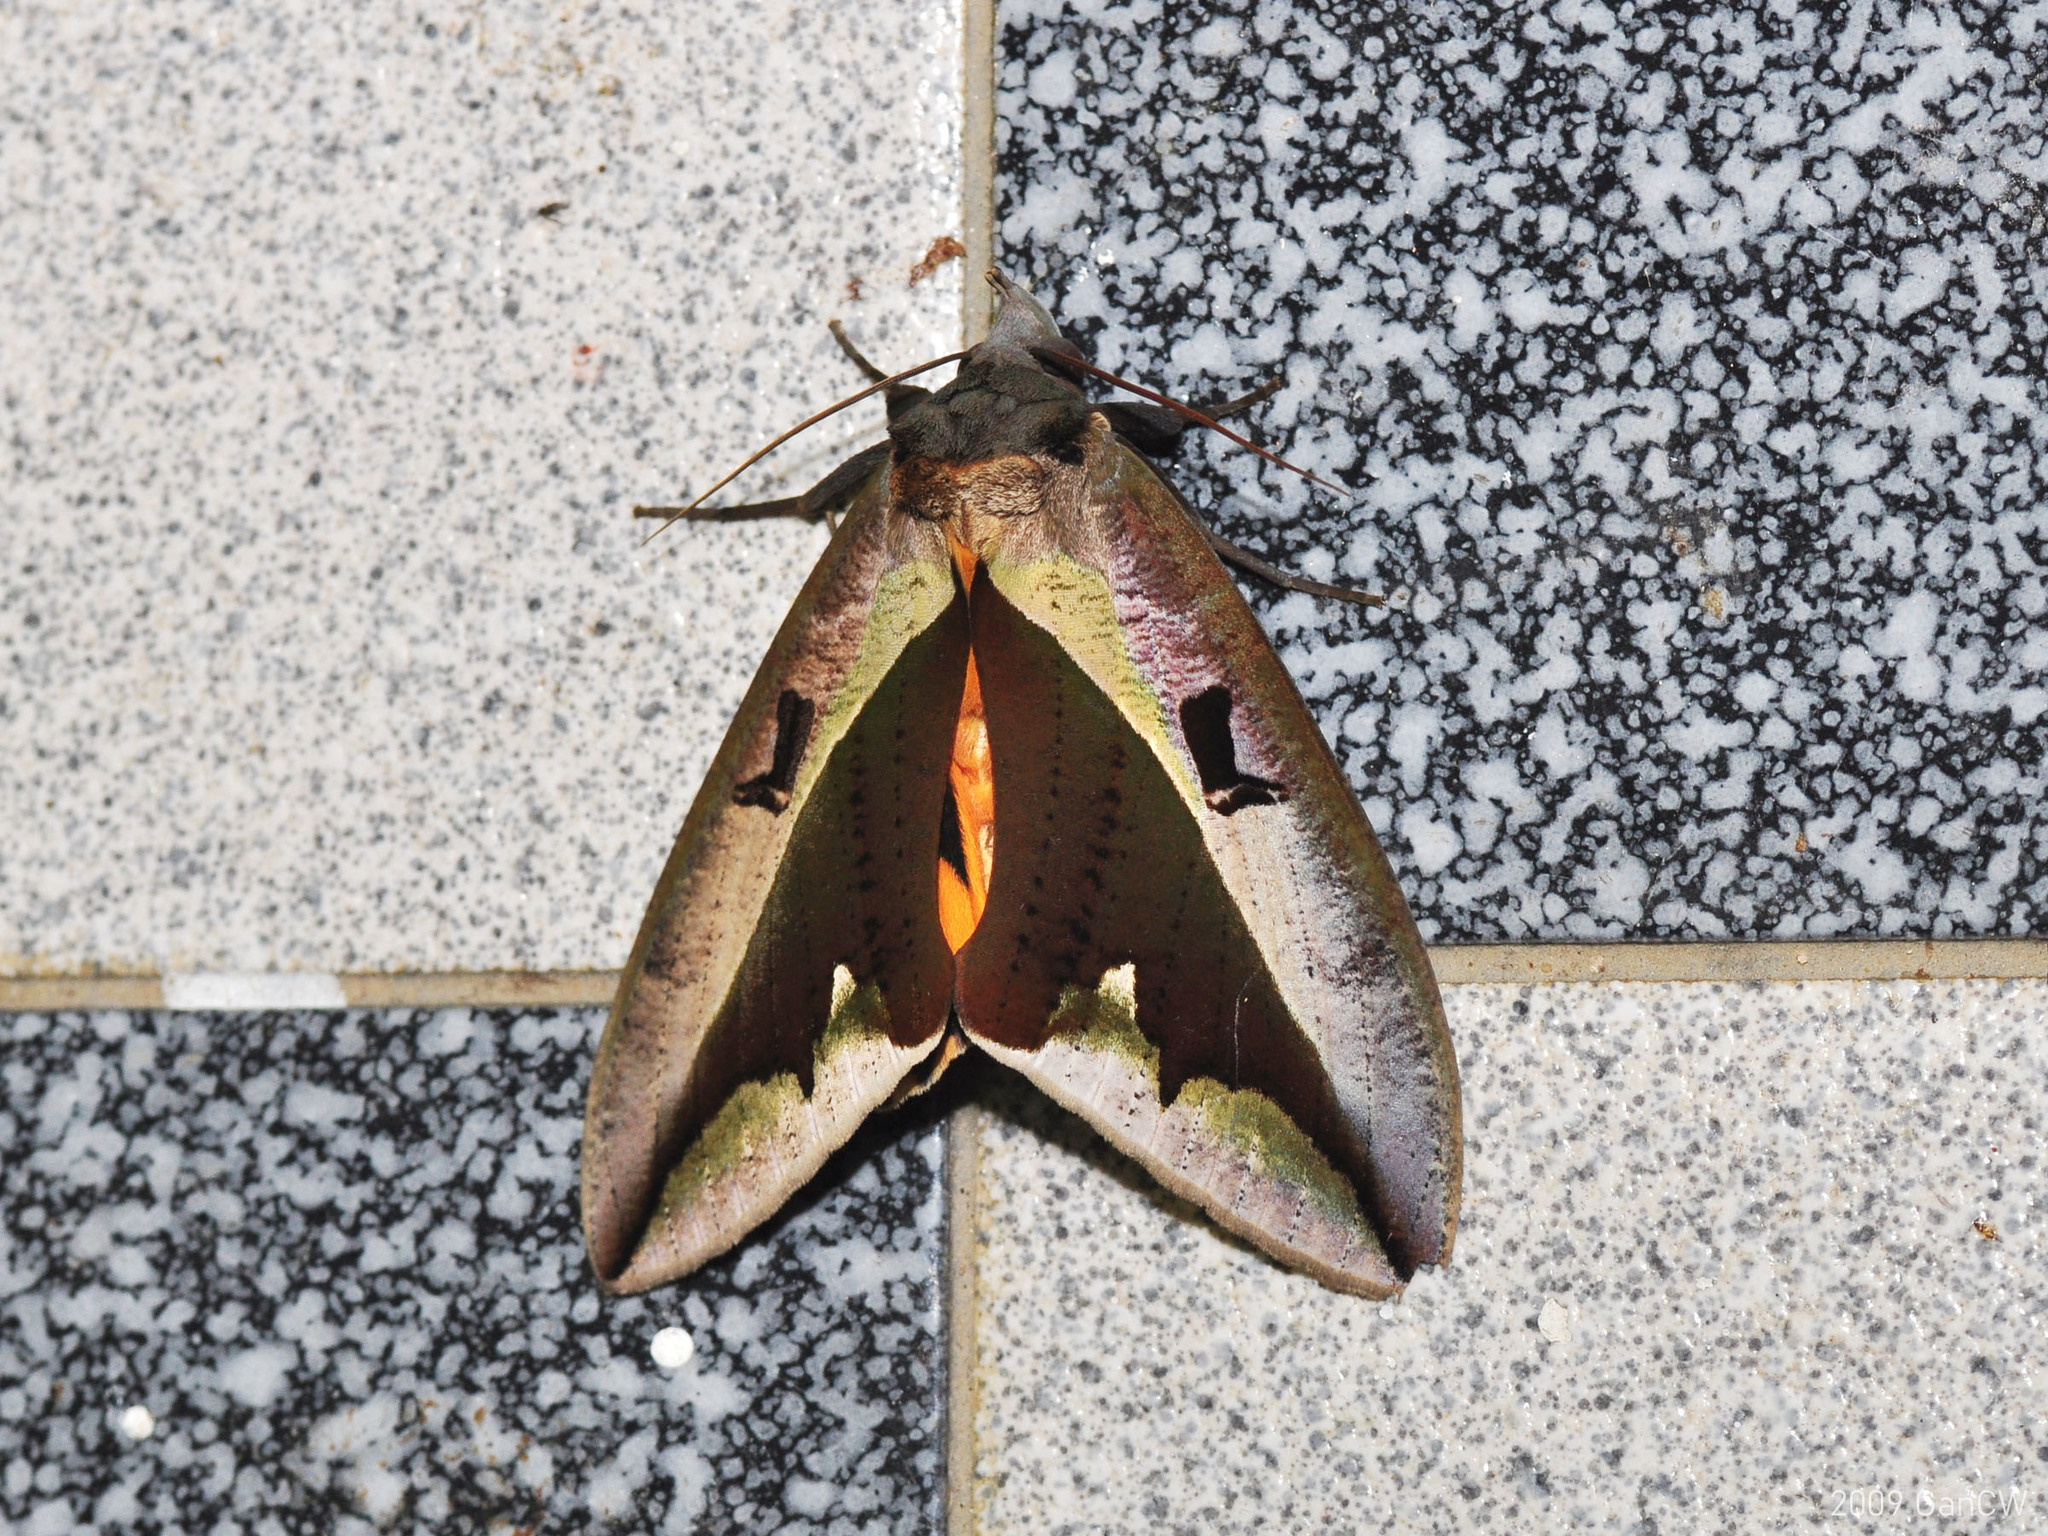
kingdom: Animalia
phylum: Arthropoda
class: Insecta
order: Lepidoptera
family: Erebidae
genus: Eudocima
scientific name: Eudocima dividens
